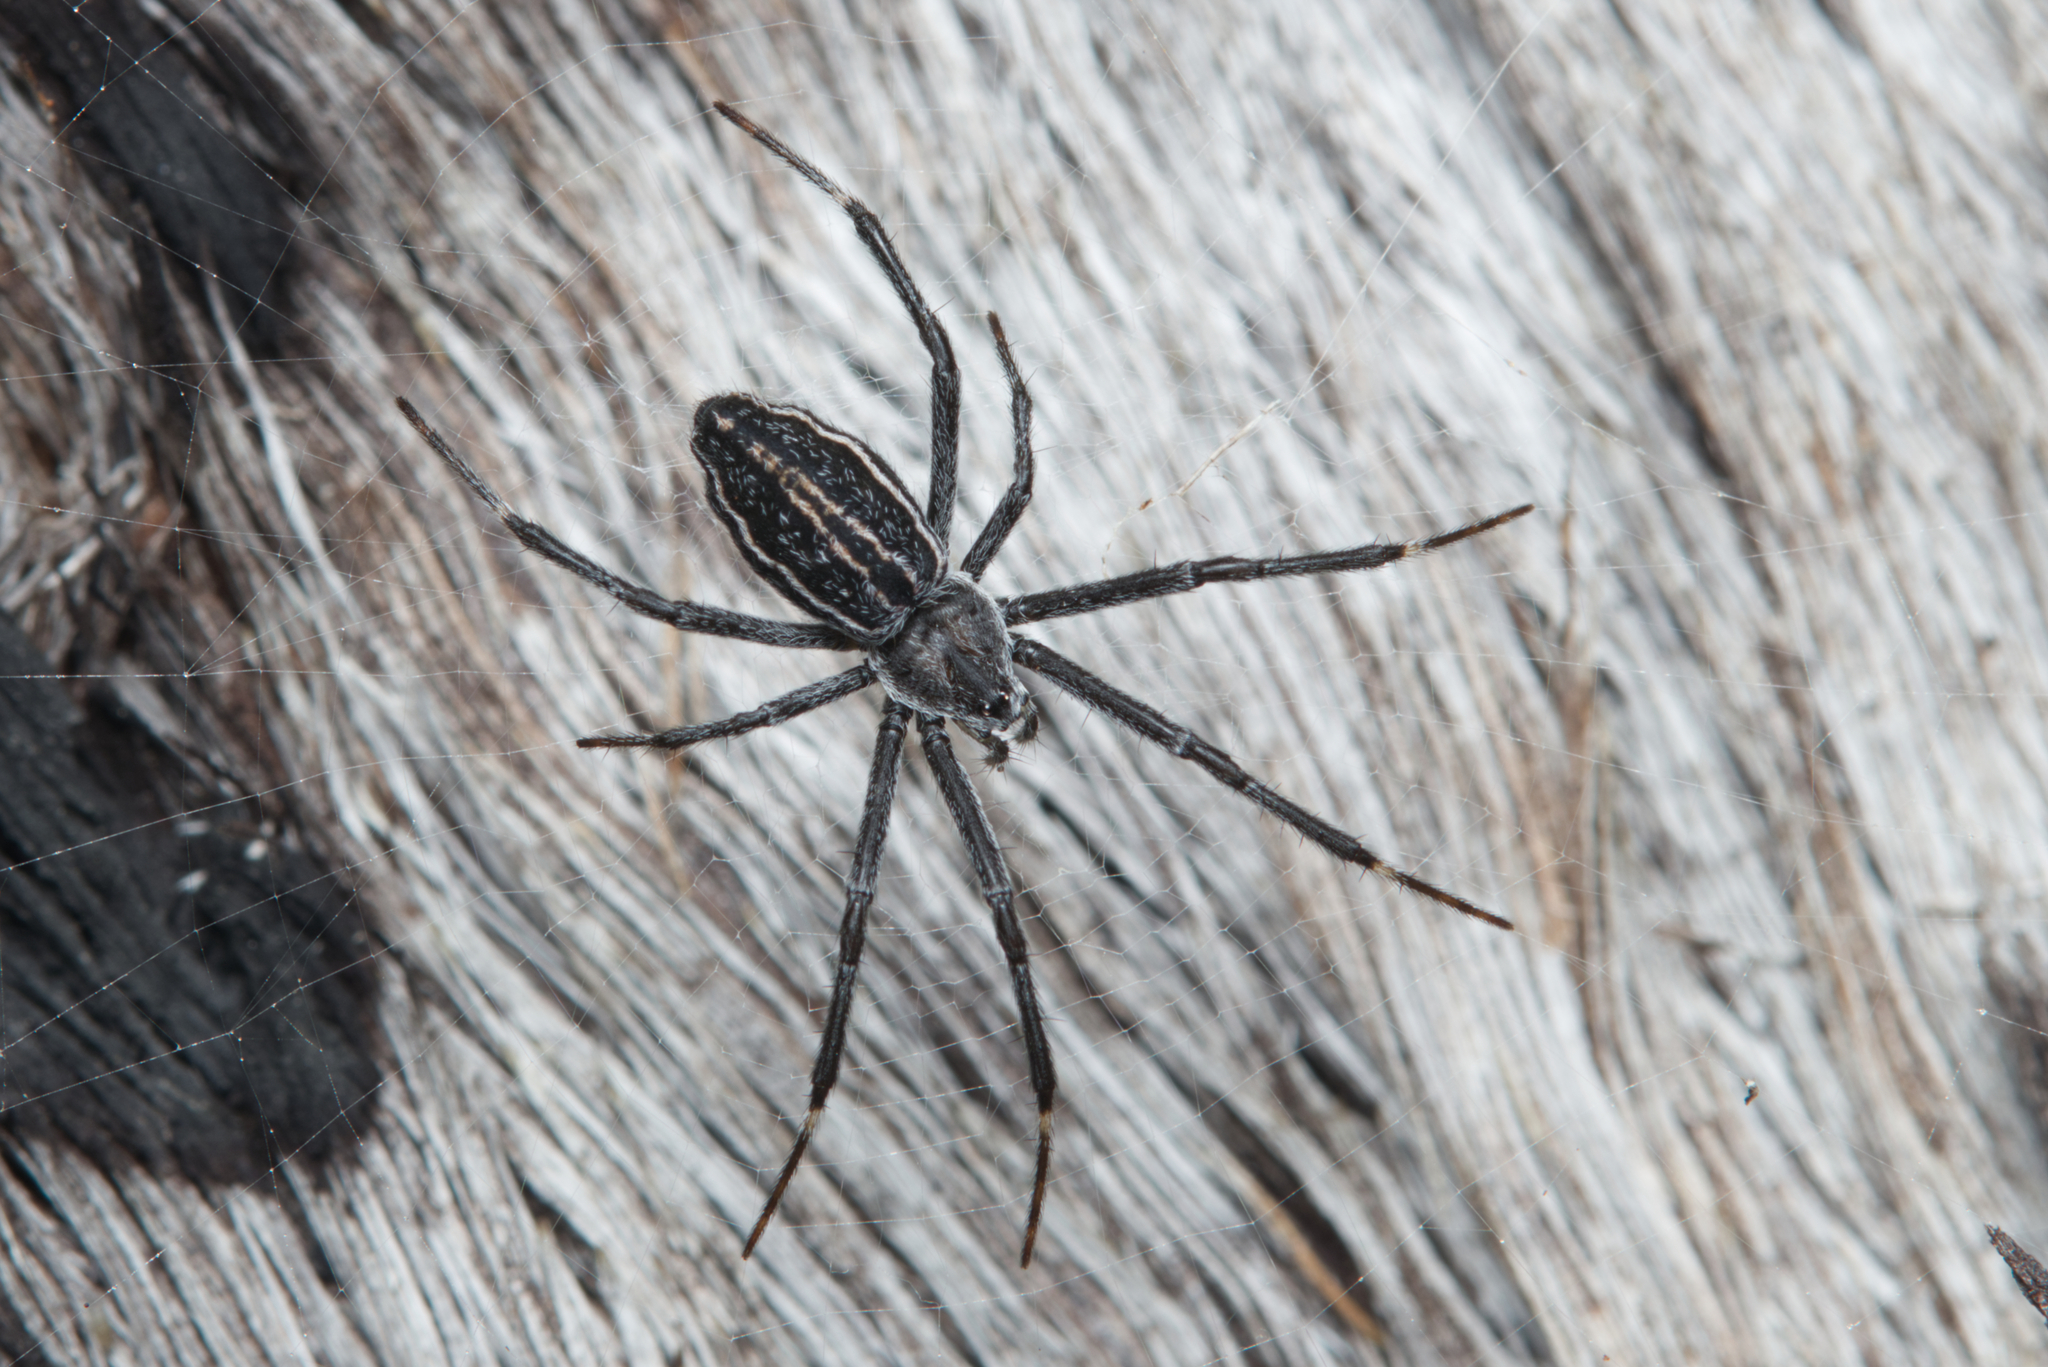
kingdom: Animalia
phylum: Arthropoda
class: Arachnida
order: Araneae
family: Araneidae
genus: Argiope
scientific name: Argiope ocyaloides
